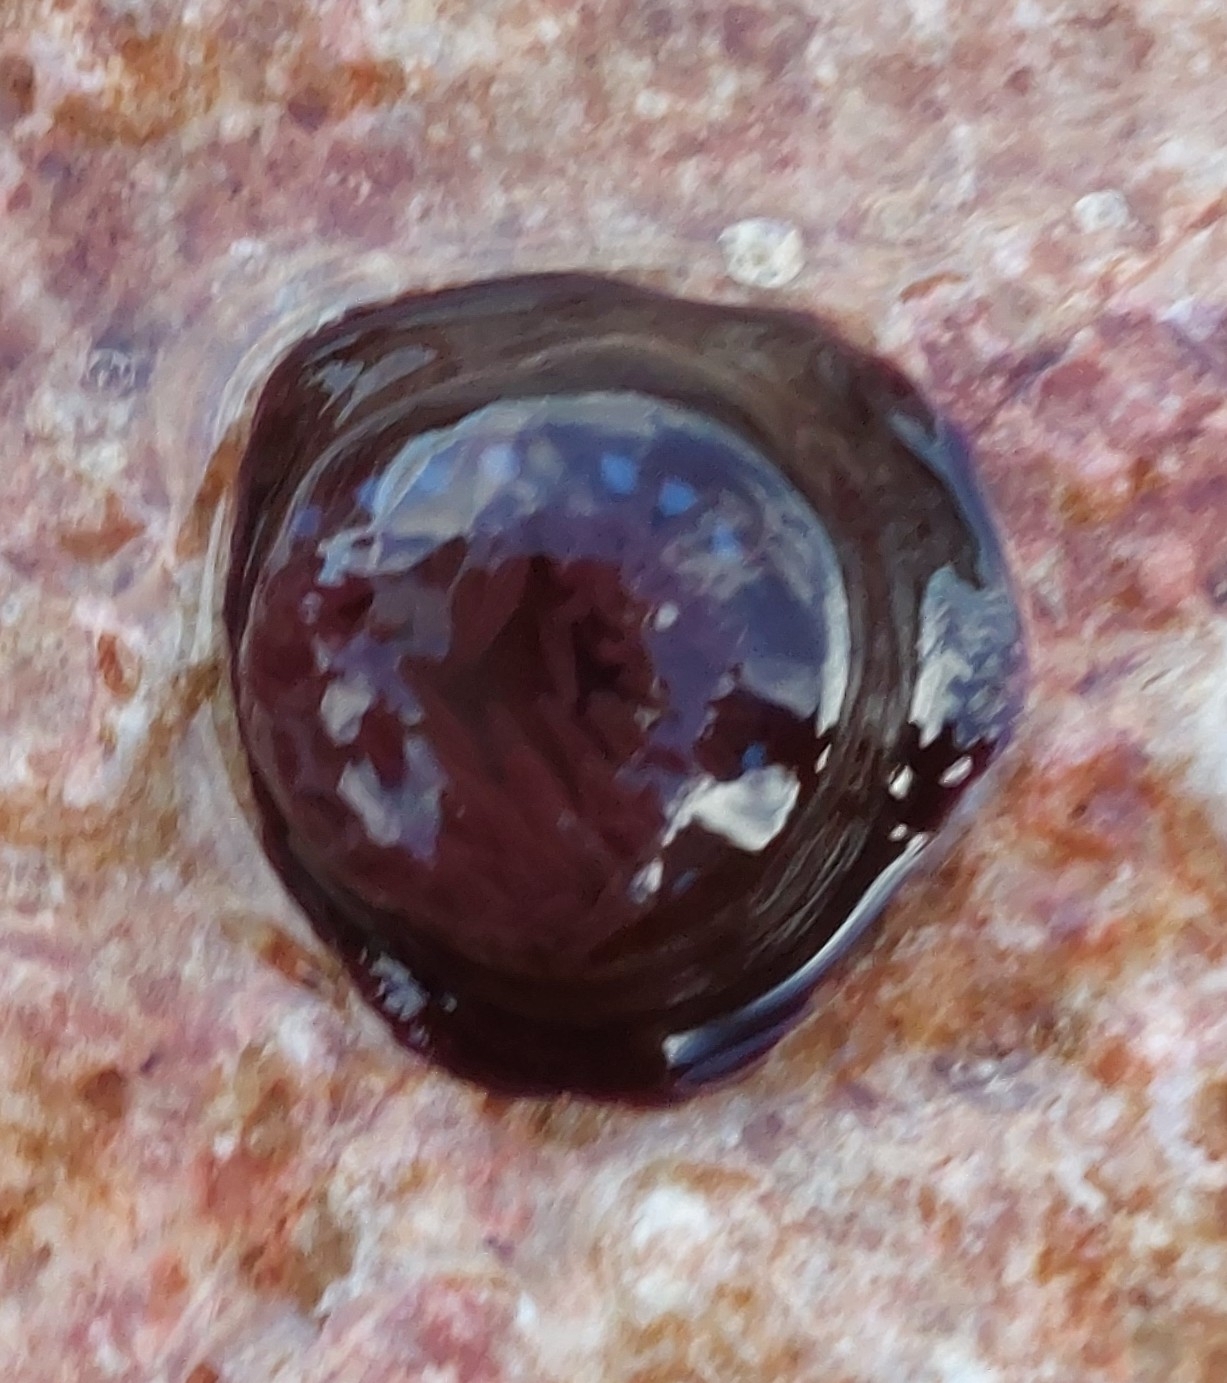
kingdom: Animalia
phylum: Cnidaria
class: Anthozoa
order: Actiniaria
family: Actiniidae
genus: Actinia
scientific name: Actinia equina
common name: Beadlet anemone
